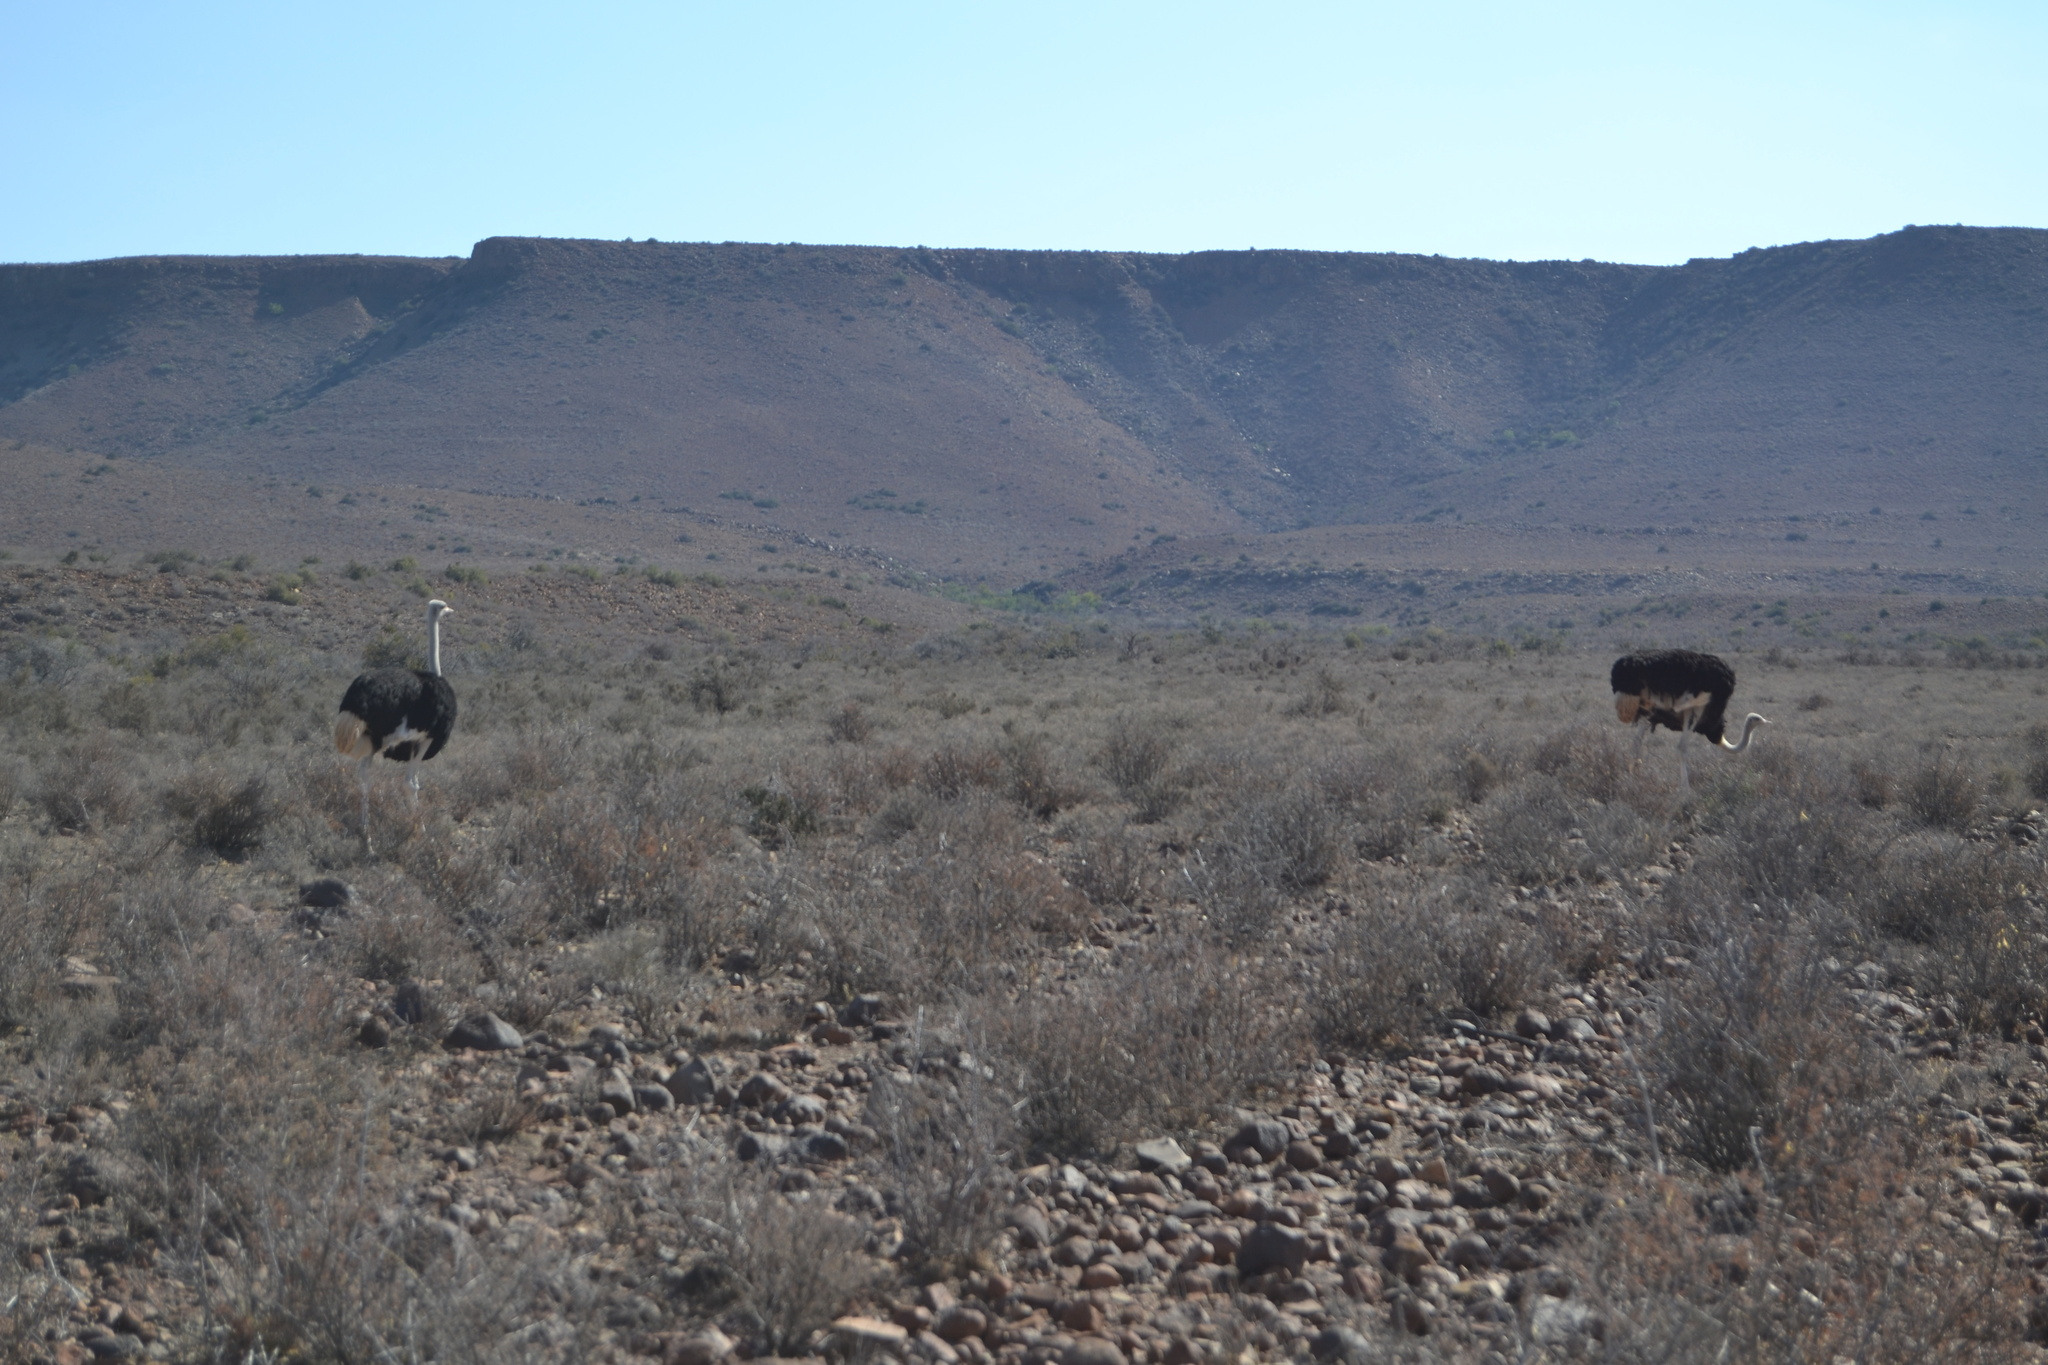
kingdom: Animalia
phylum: Chordata
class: Aves
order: Struthioniformes
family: Struthionidae
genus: Struthio
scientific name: Struthio camelus
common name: Common ostrich
